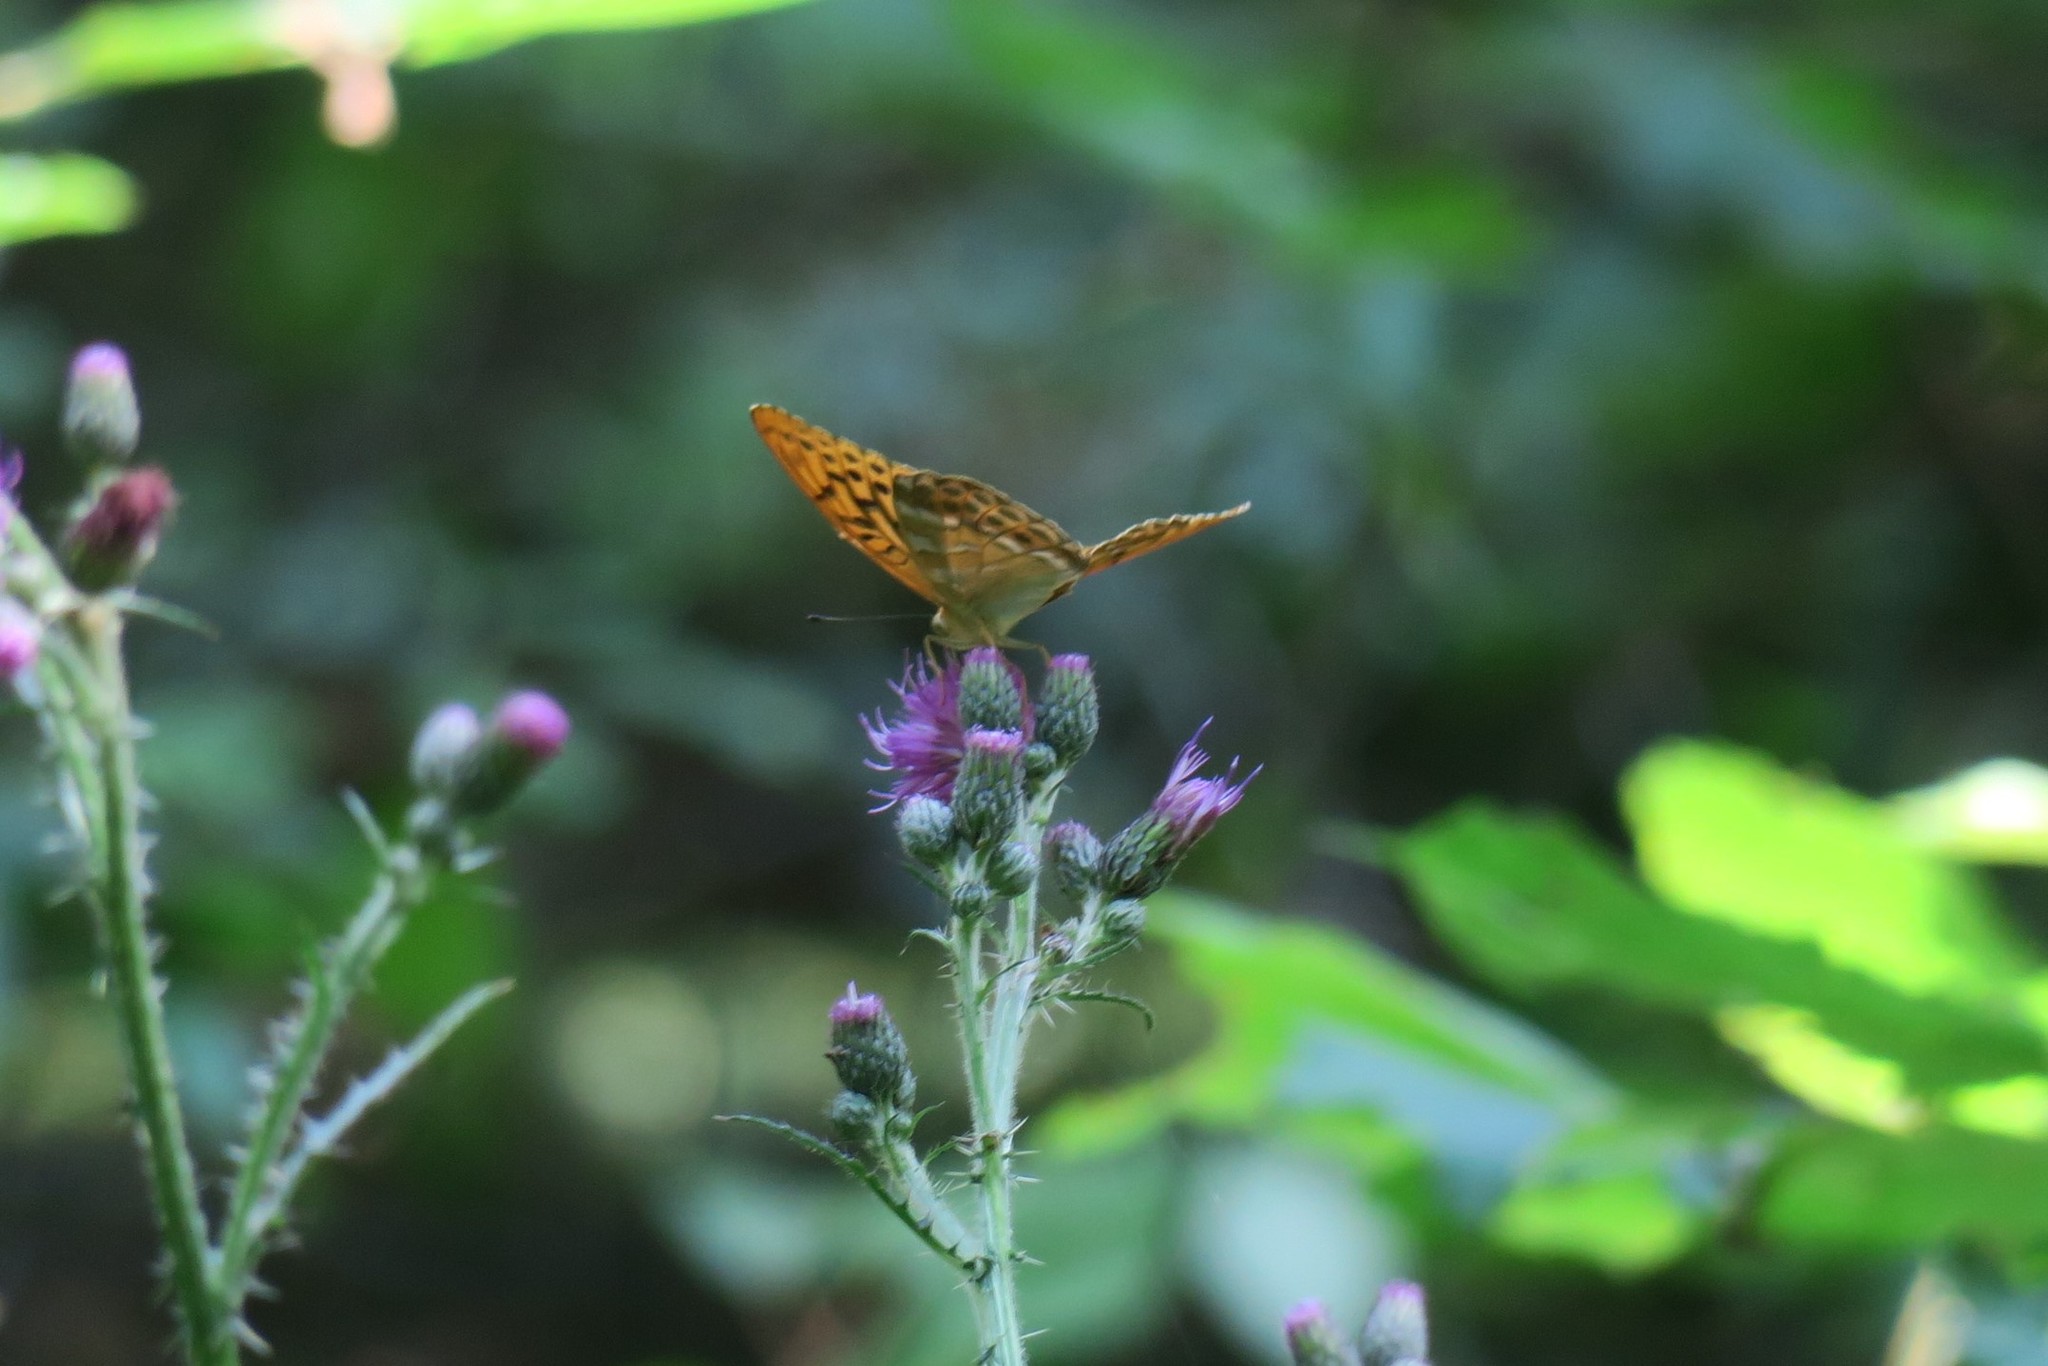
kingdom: Animalia
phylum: Arthropoda
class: Insecta
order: Lepidoptera
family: Nymphalidae
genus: Argynnis
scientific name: Argynnis paphia
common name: Silver-washed fritillary
